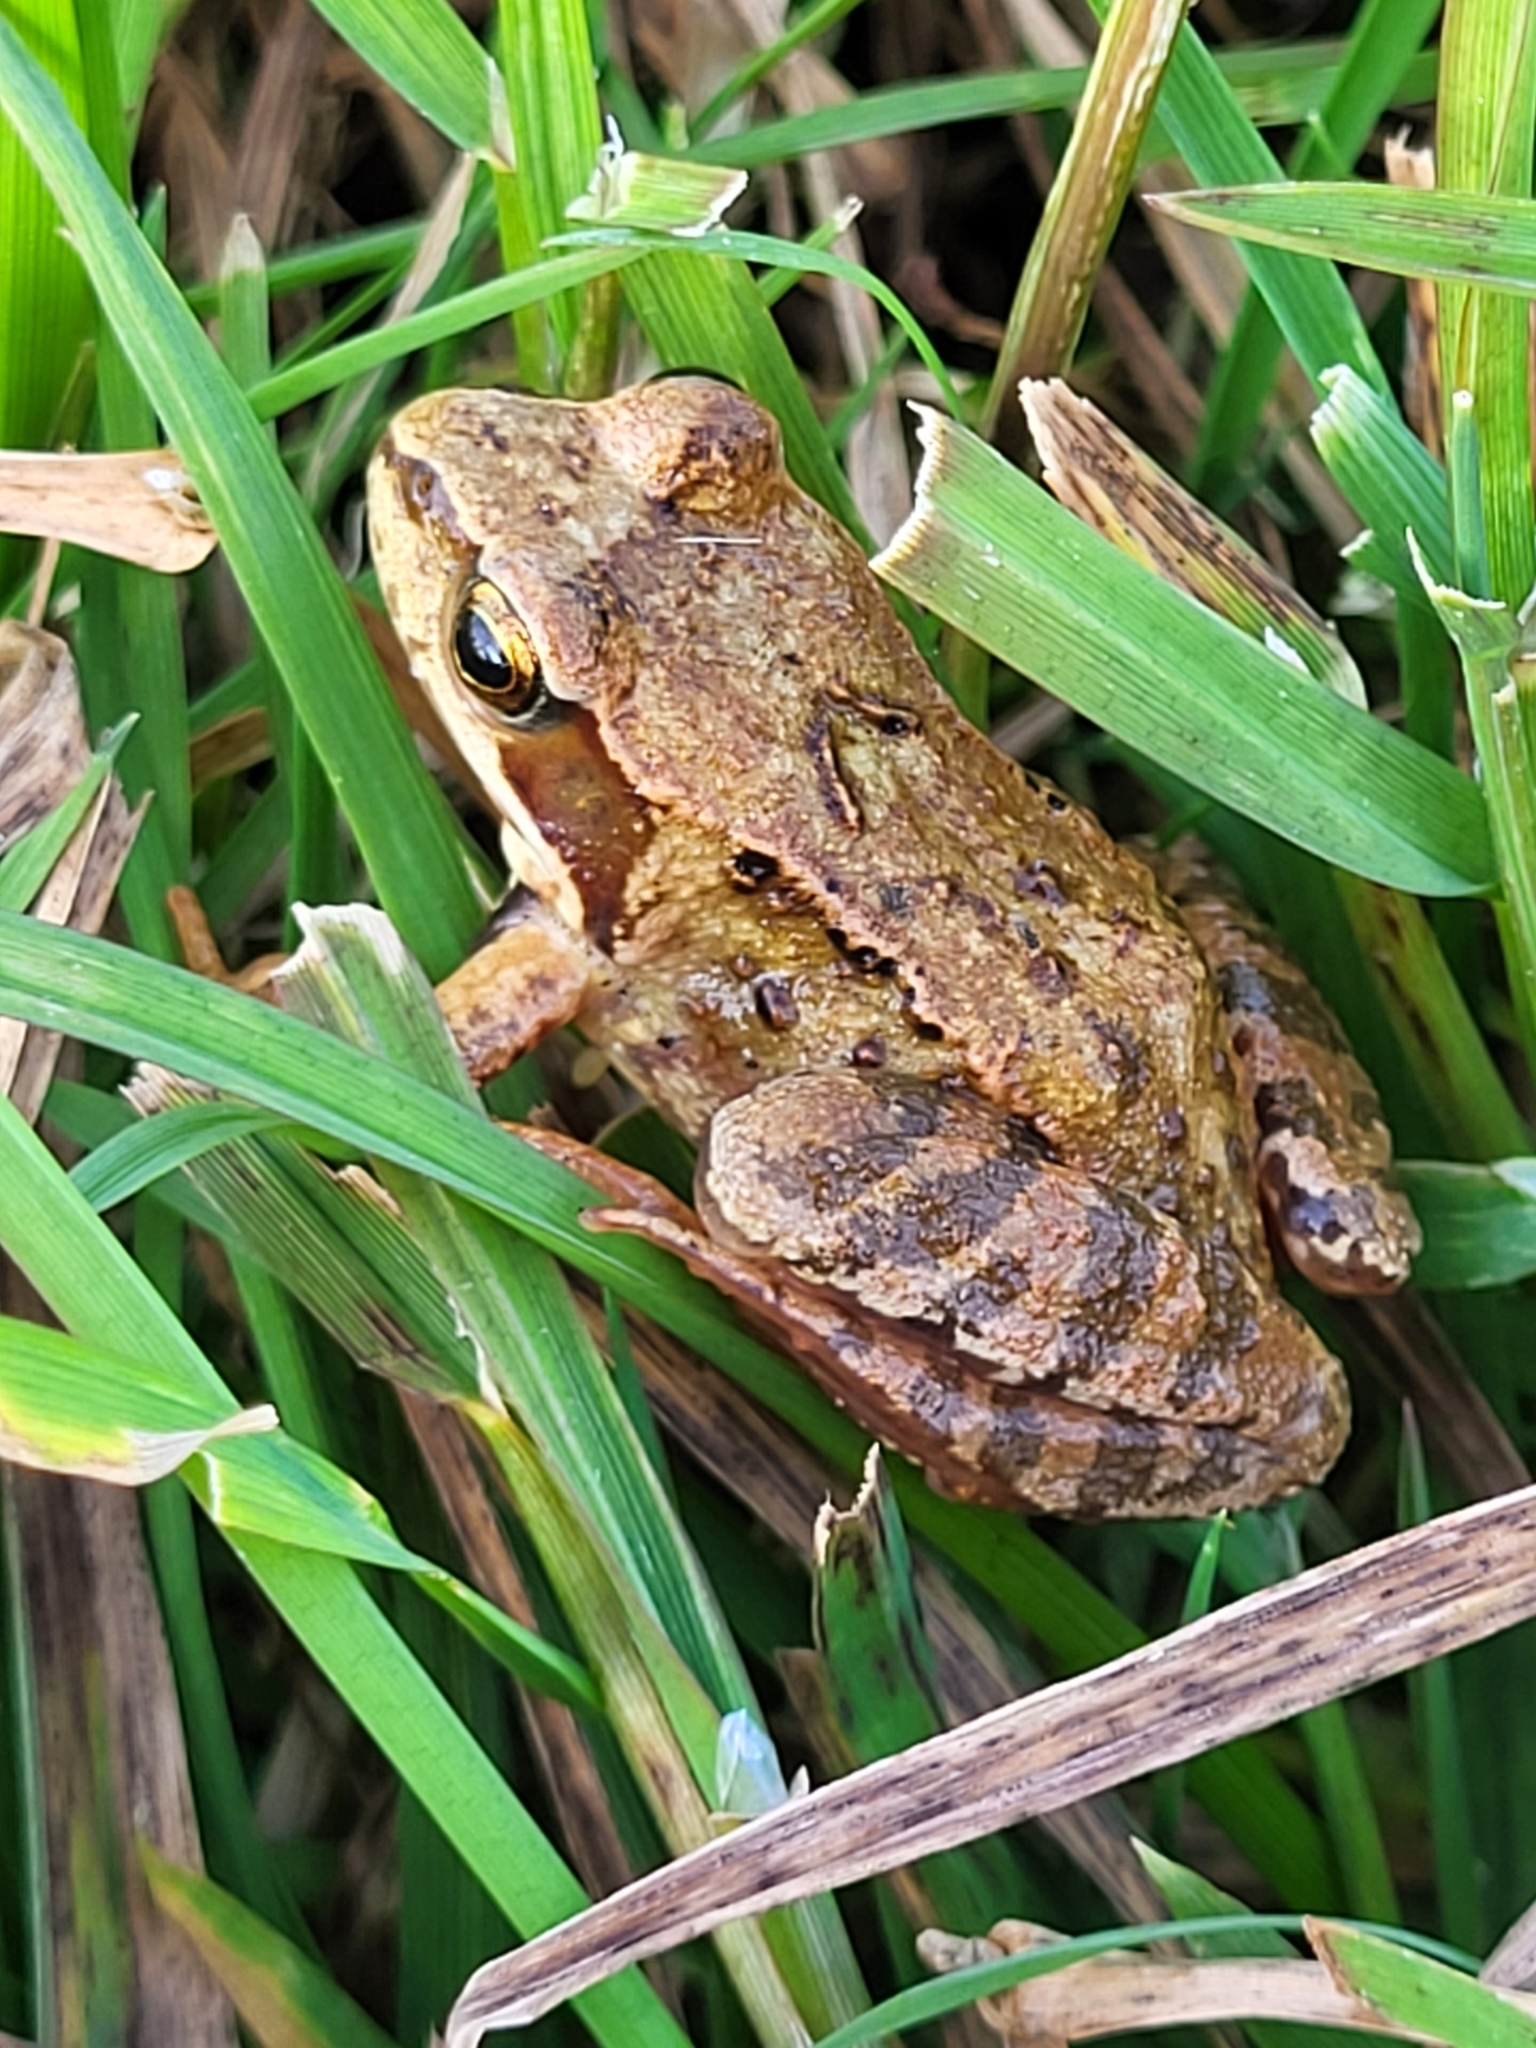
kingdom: Animalia
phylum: Chordata
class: Amphibia
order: Anura
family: Ranidae
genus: Rana
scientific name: Rana temporaria
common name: Common frog
